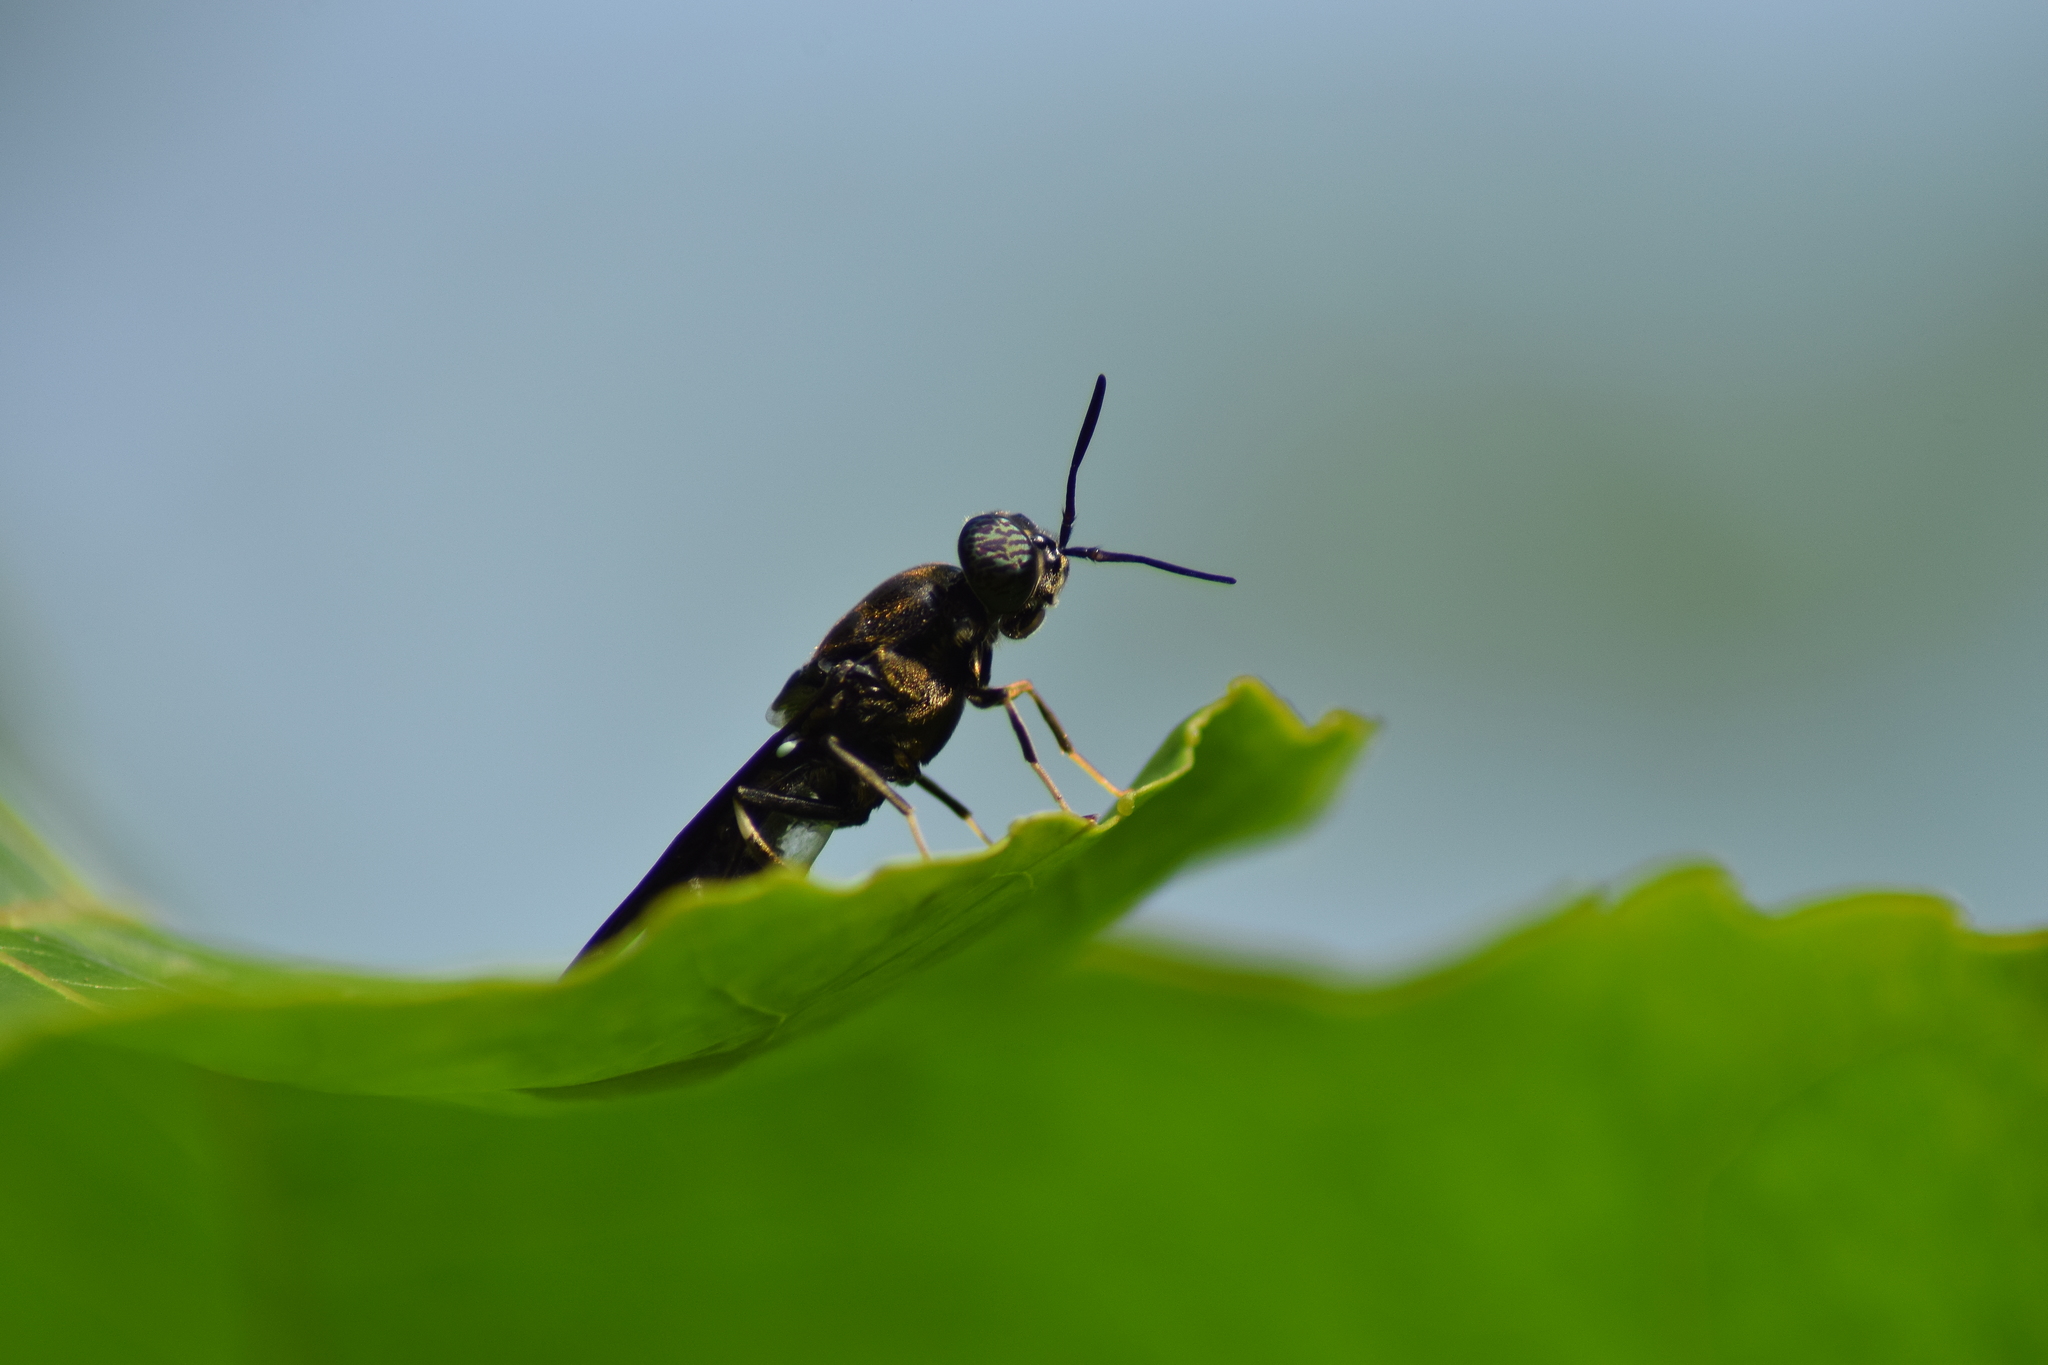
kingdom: Animalia
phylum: Arthropoda
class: Insecta
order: Diptera
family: Stratiomyidae
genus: Hermetia
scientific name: Hermetia illucens
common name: Black soldier fly
